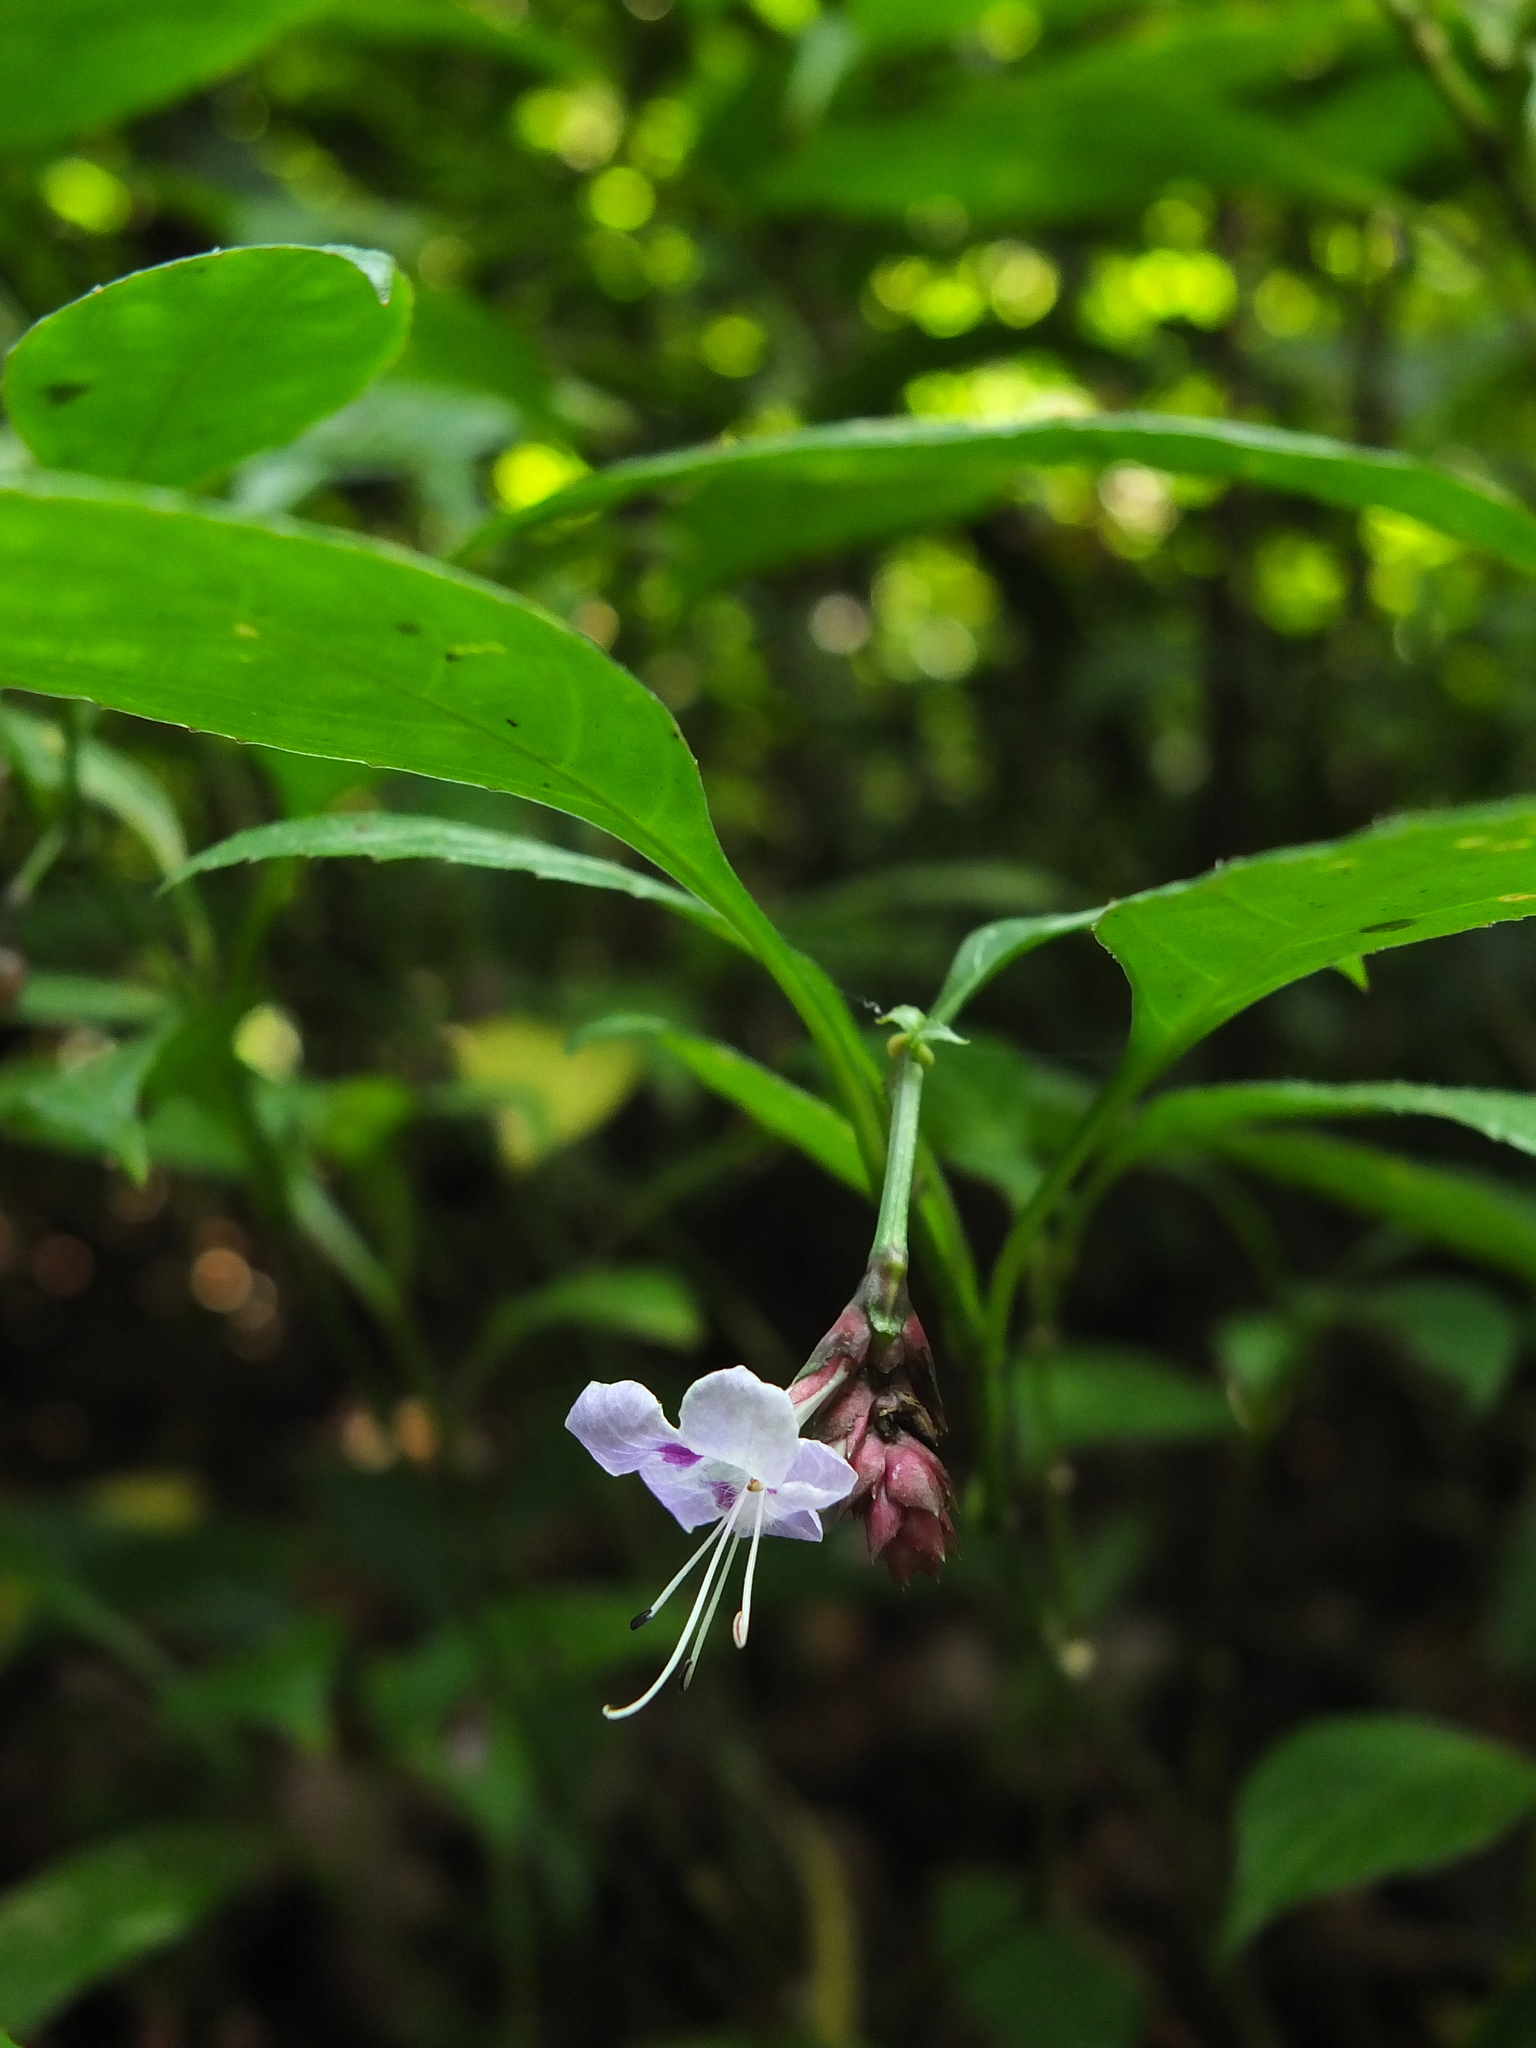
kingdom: Plantae
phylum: Tracheophyta
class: Magnoliopsida
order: Lamiales
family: Acanthaceae
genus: Strobilanthes
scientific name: Strobilanthes ciliata
